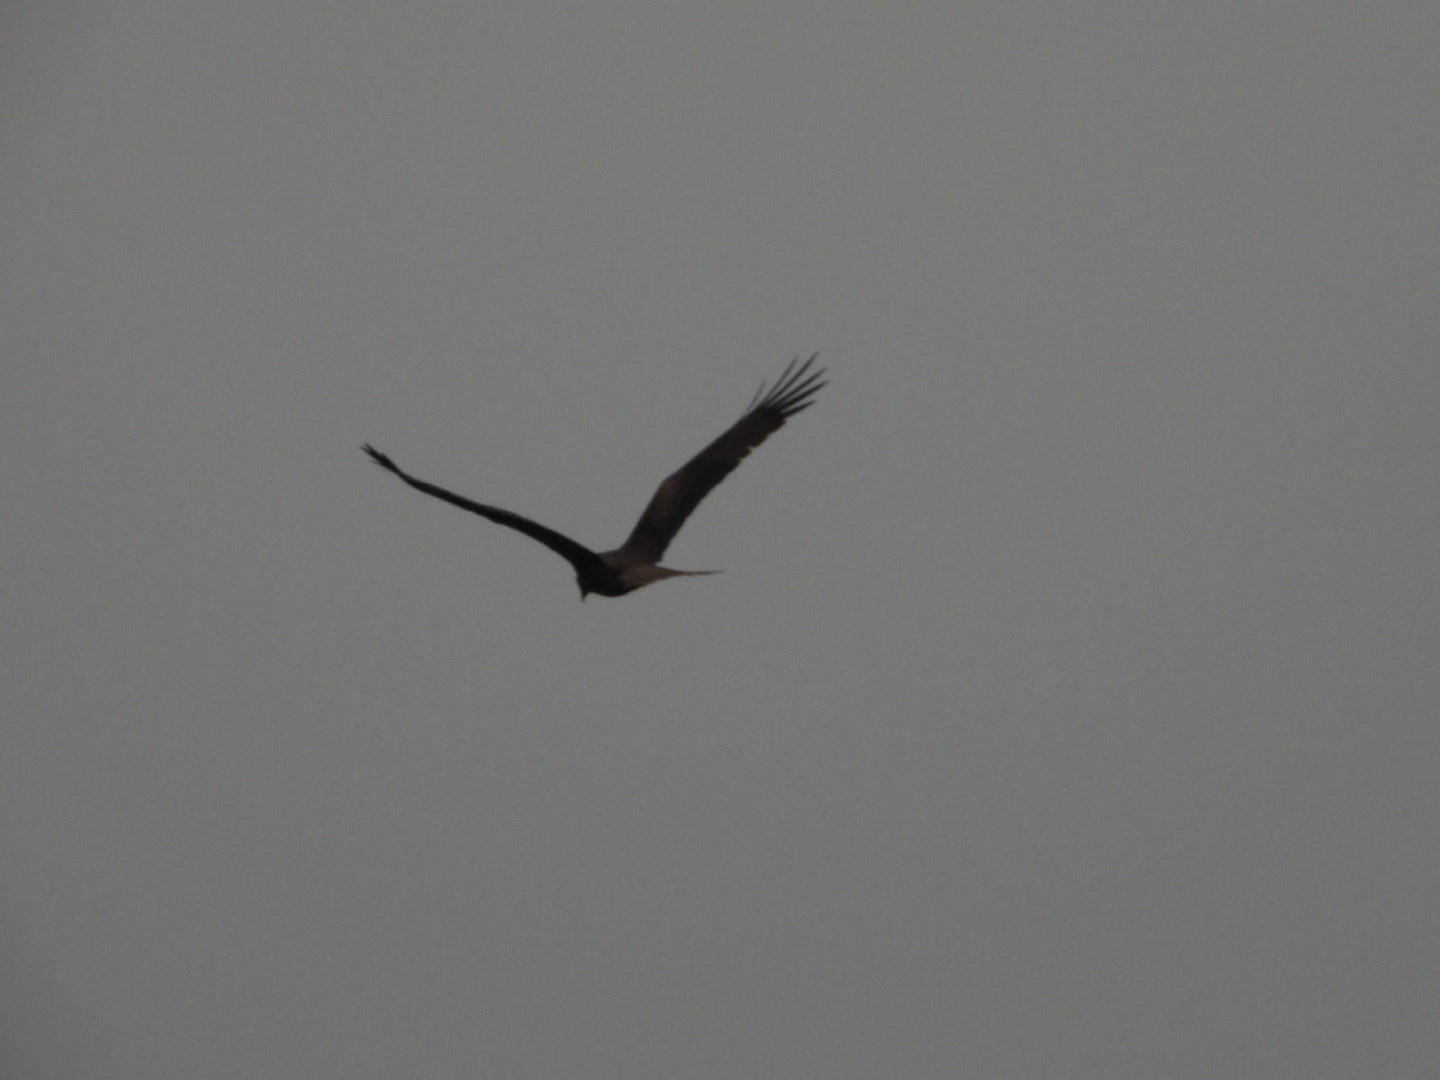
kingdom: Animalia
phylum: Chordata
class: Aves
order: Accipitriformes
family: Accipitridae
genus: Milvus
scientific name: Milvus migrans
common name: Black kite
